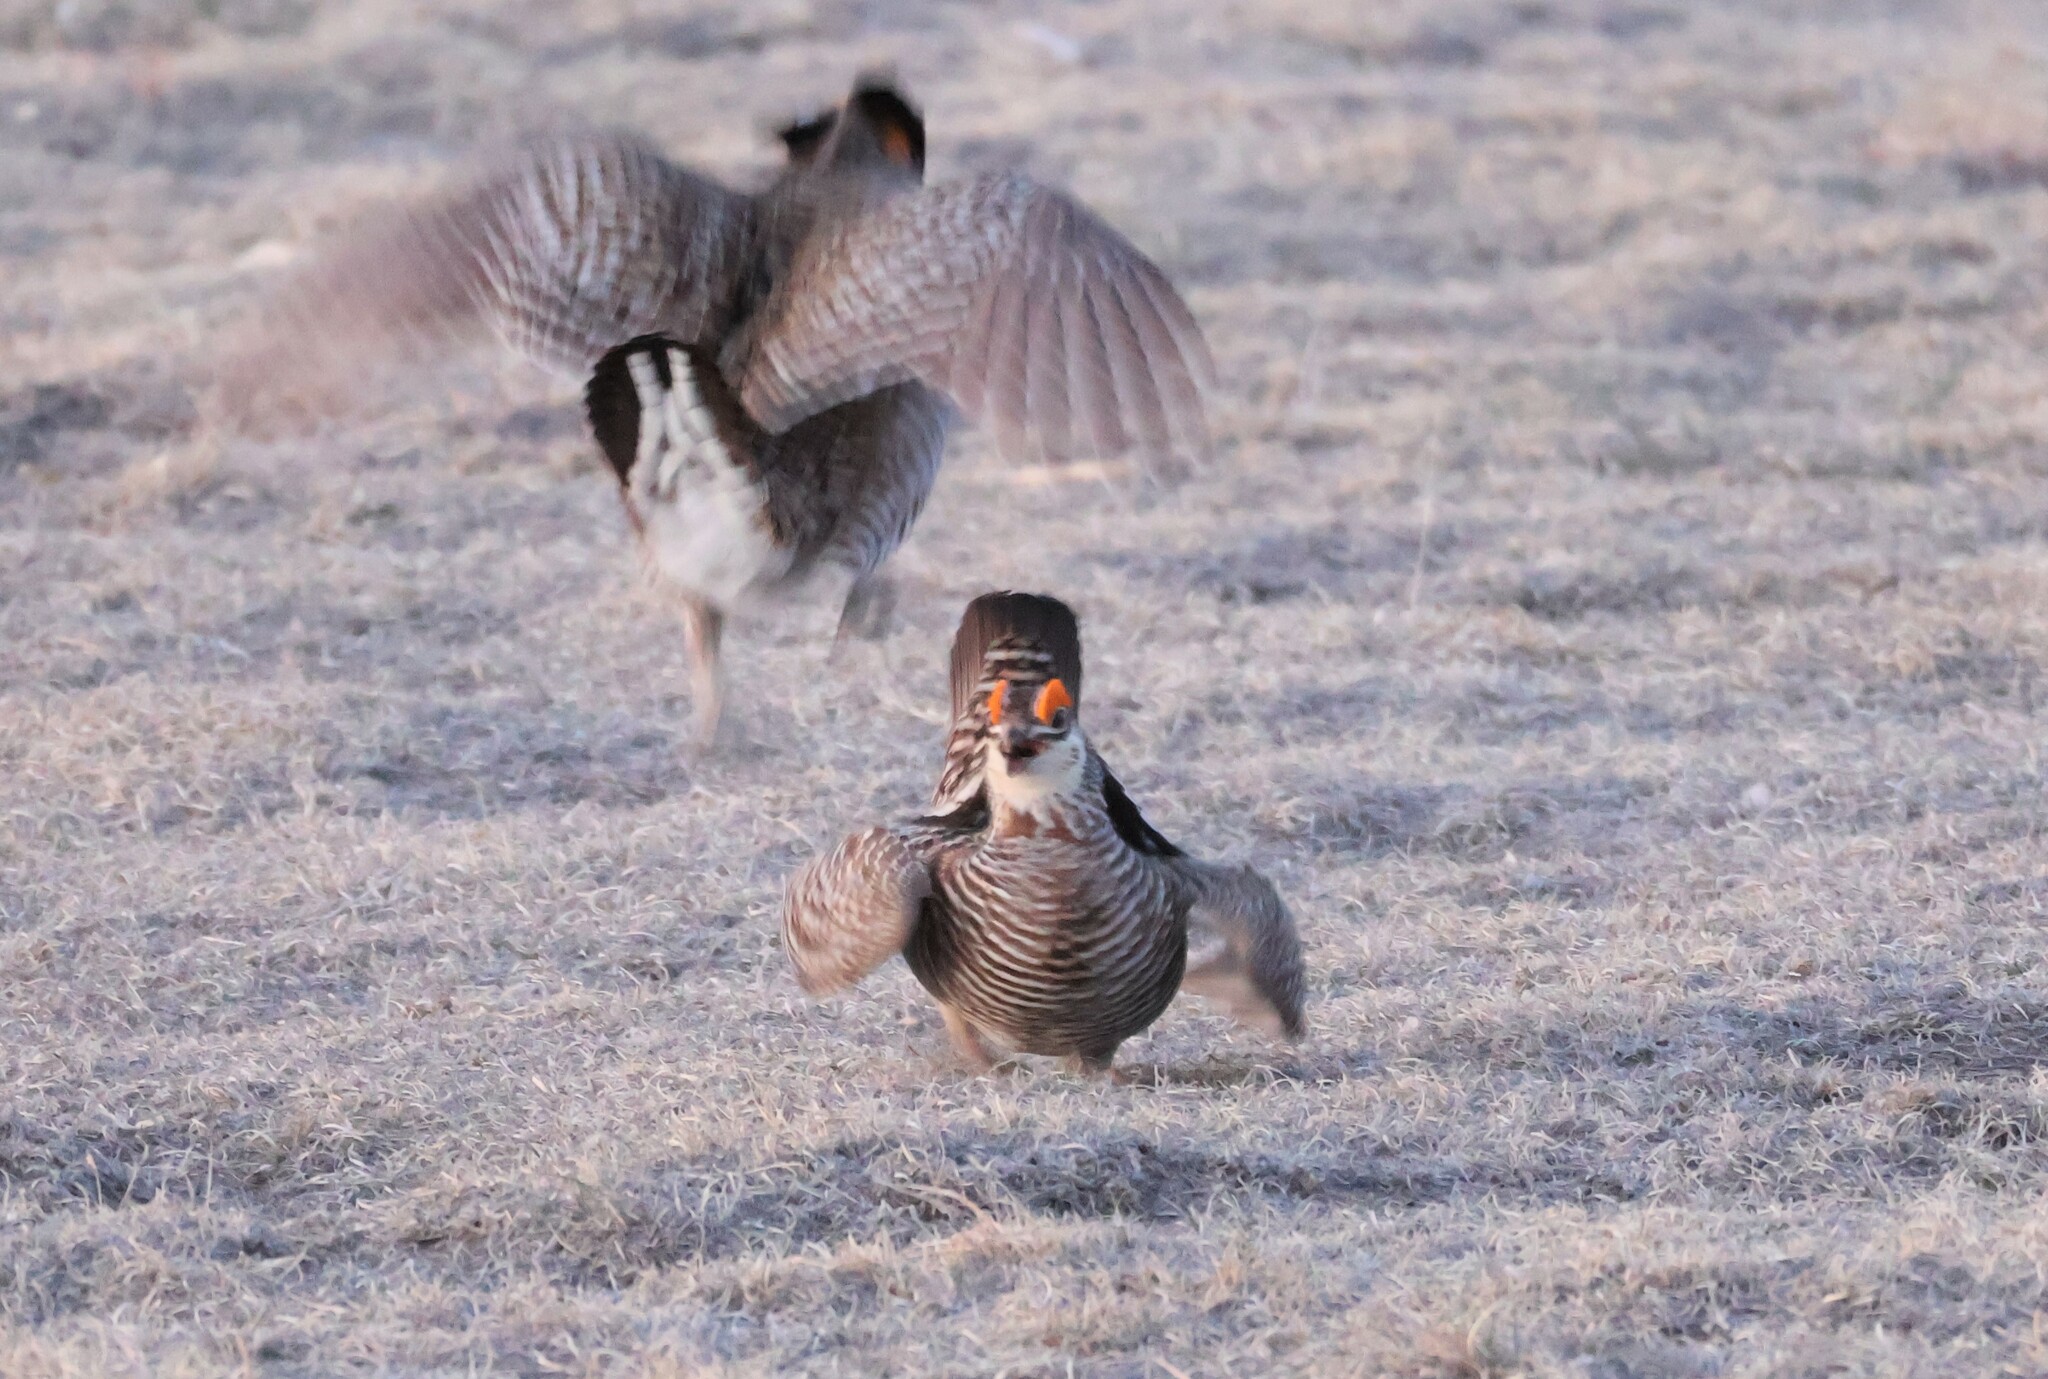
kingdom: Animalia
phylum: Chordata
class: Aves
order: Galliformes
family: Phasianidae
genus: Tympanuchus
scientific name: Tympanuchus cupido
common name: Greater prairie chicken
